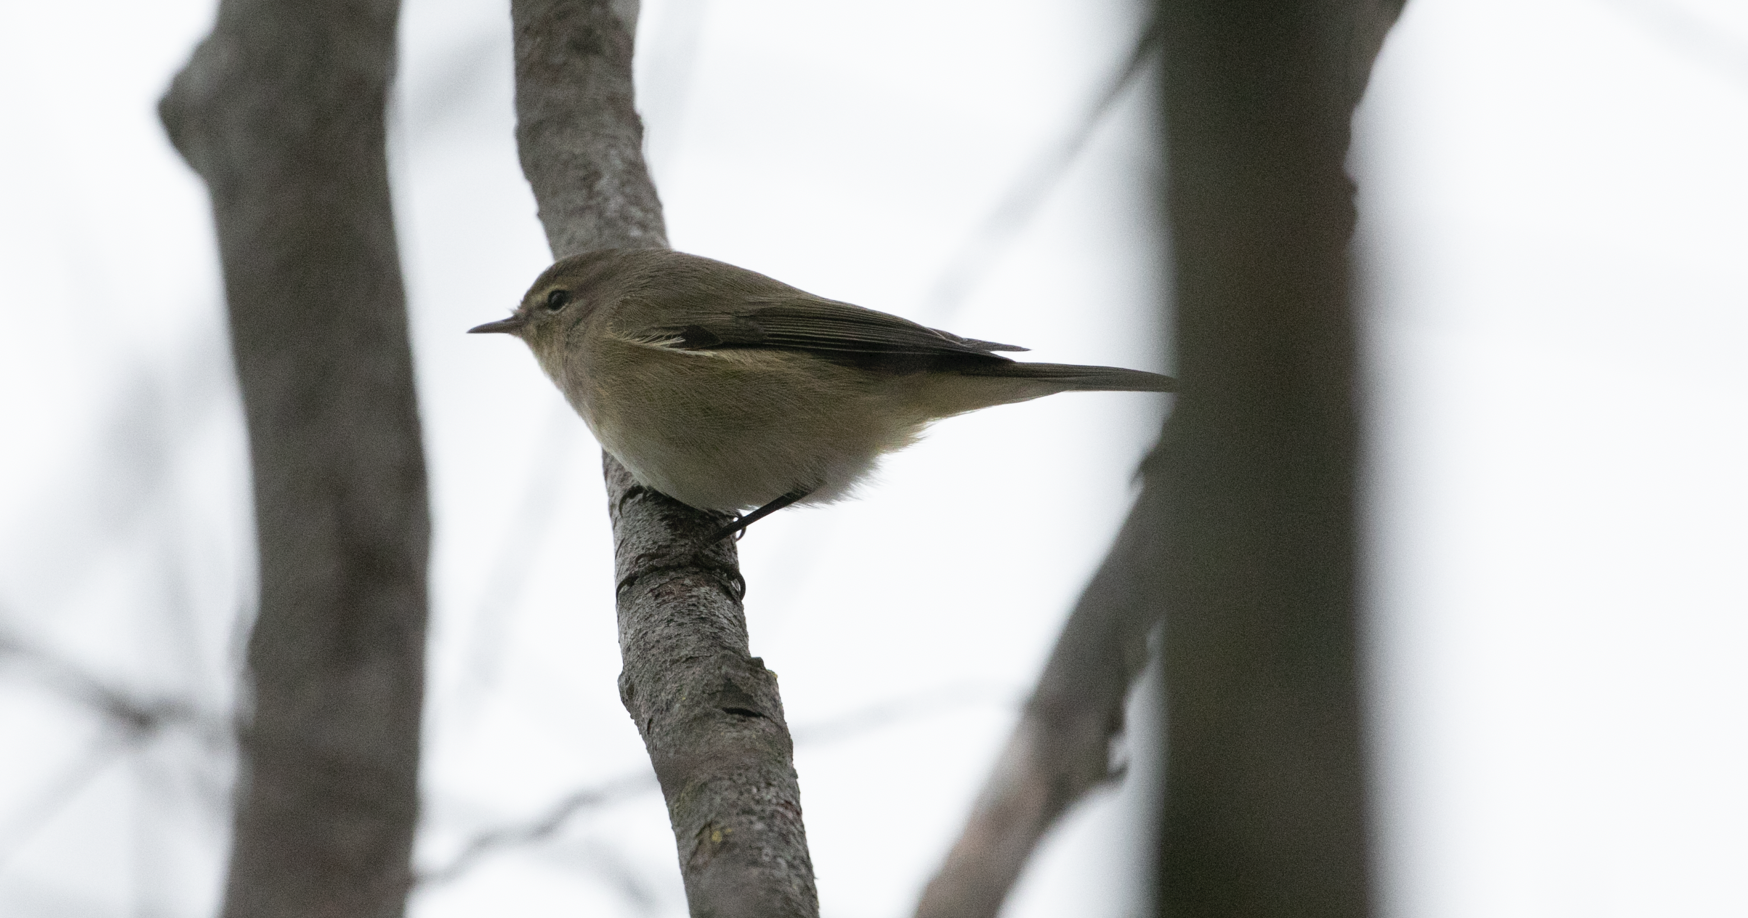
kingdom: Animalia
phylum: Chordata
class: Aves
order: Passeriformes
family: Phylloscopidae
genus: Phylloscopus
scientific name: Phylloscopus collybita
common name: Common chiffchaff
